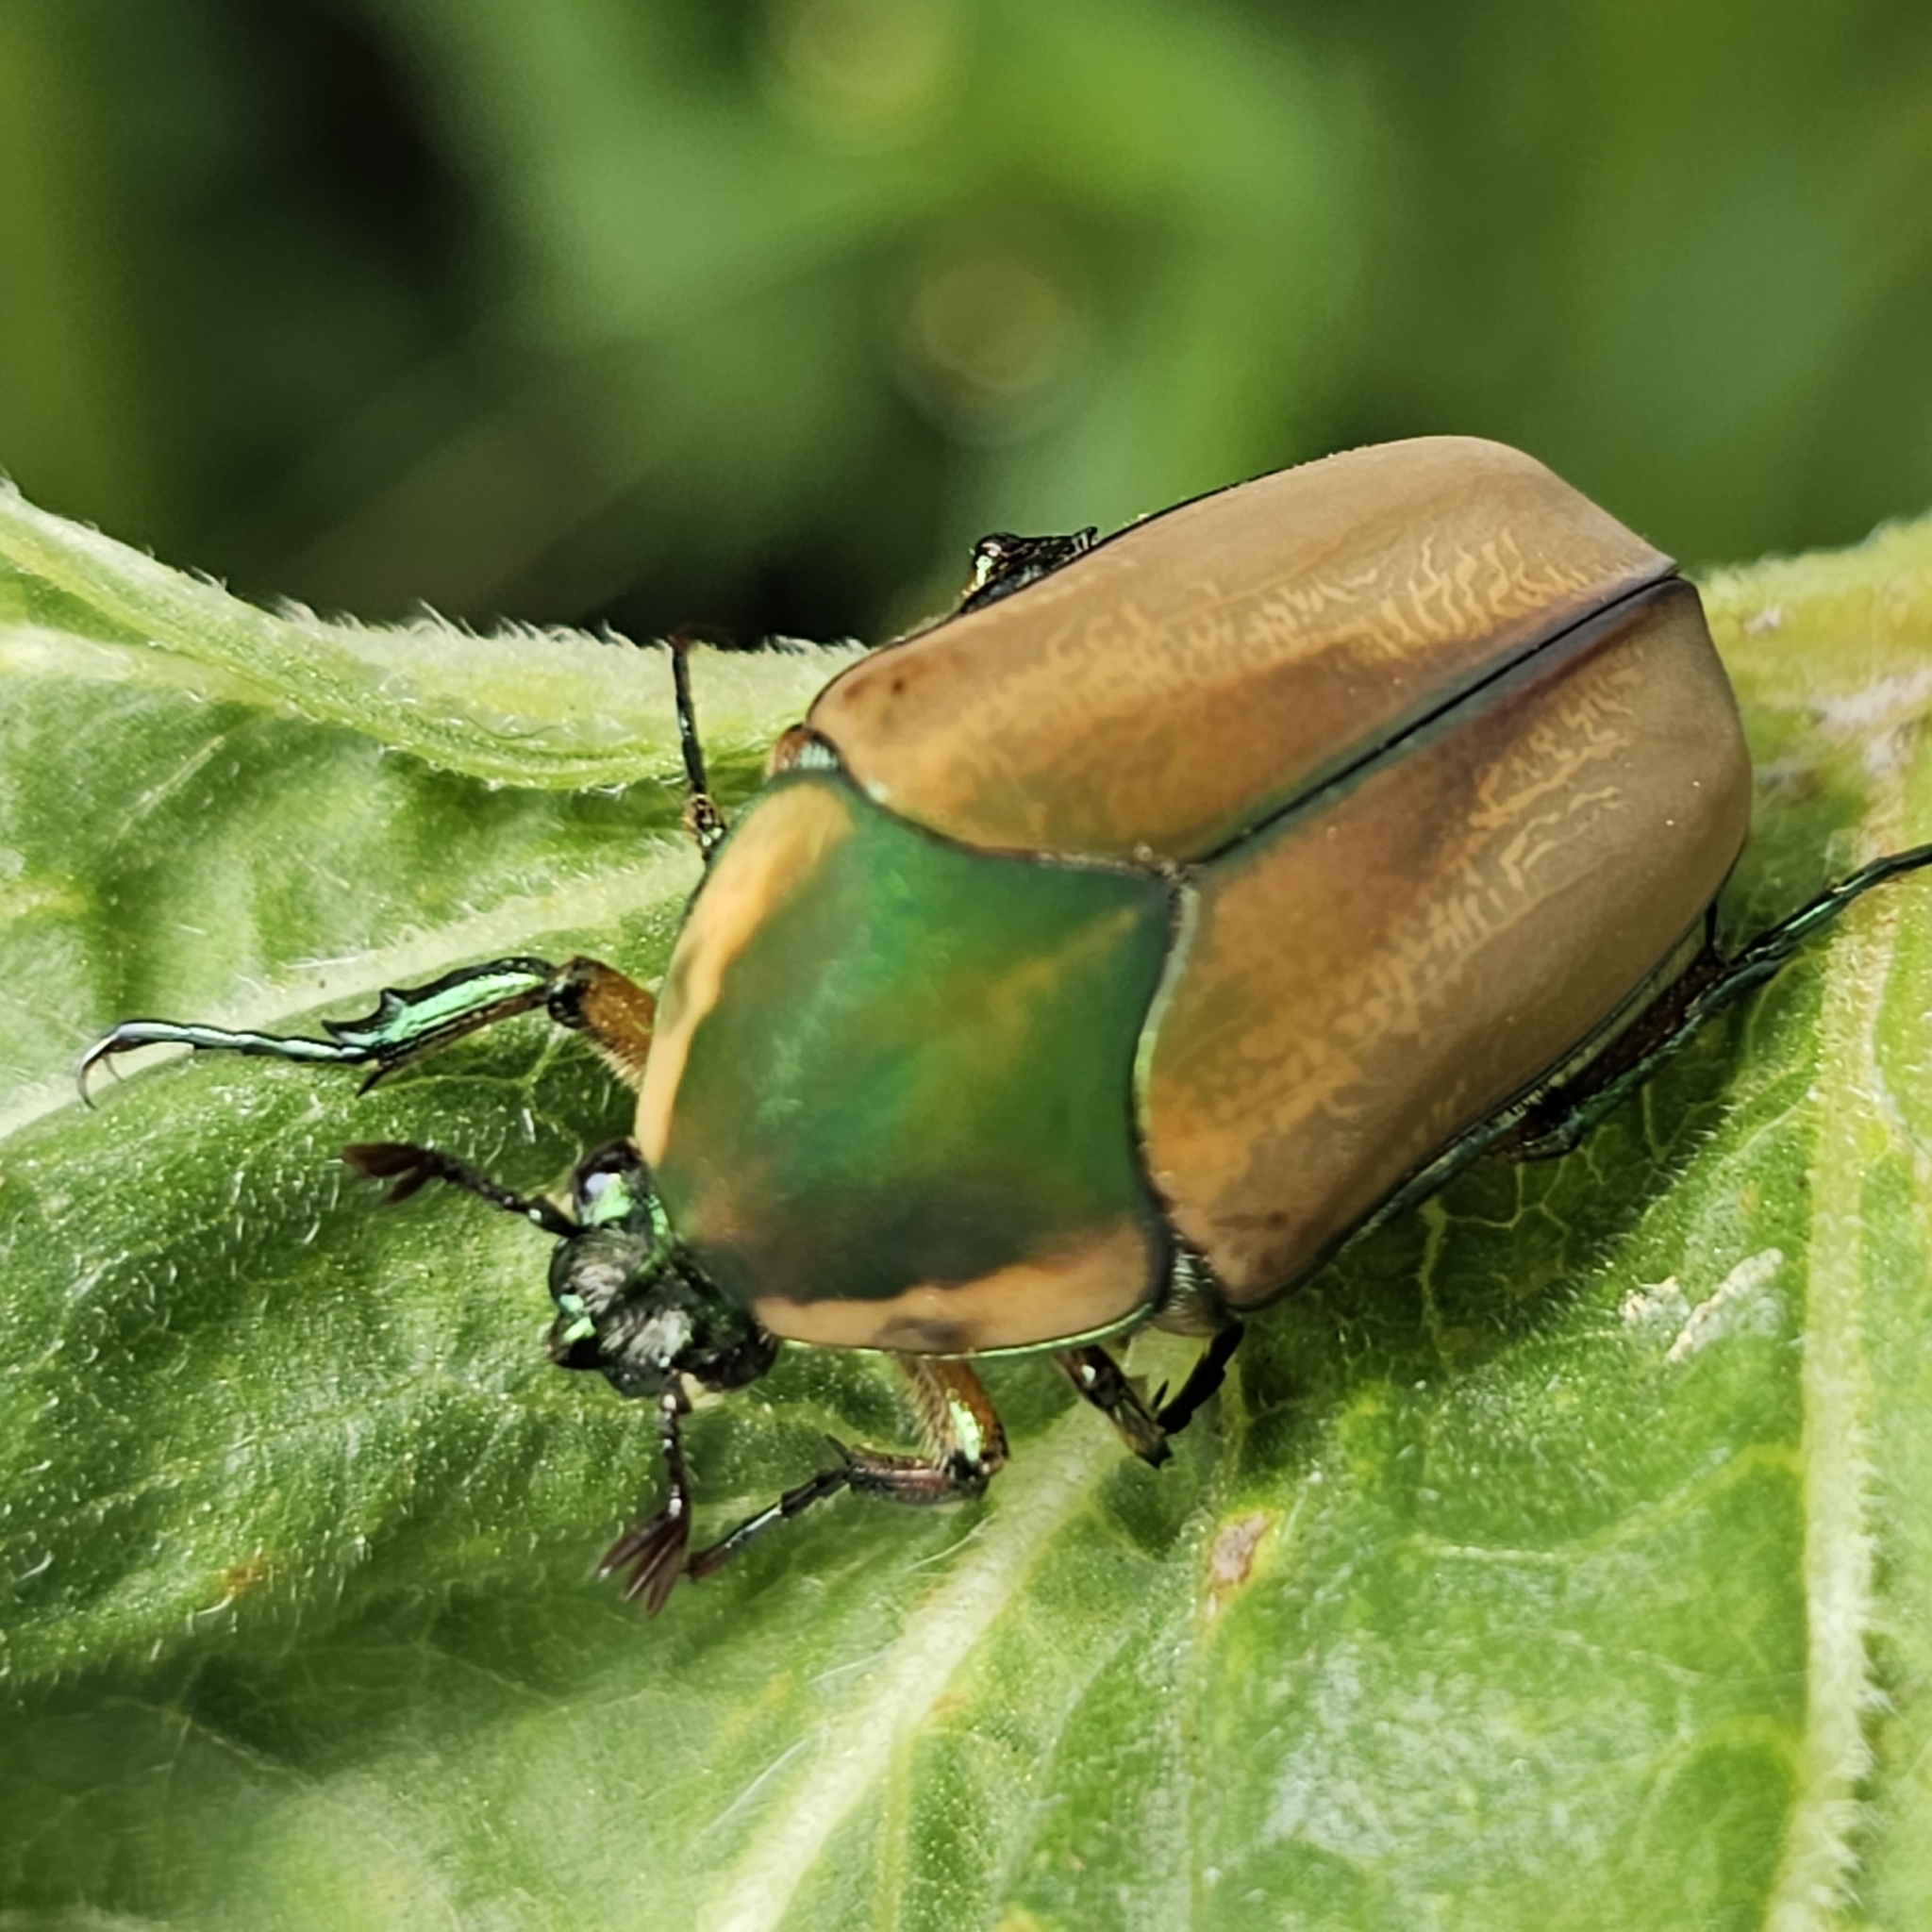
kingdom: Animalia
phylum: Arthropoda
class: Insecta
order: Coleoptera
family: Scarabaeidae
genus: Cotinis
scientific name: Cotinis nitida
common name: Common green june beetle
